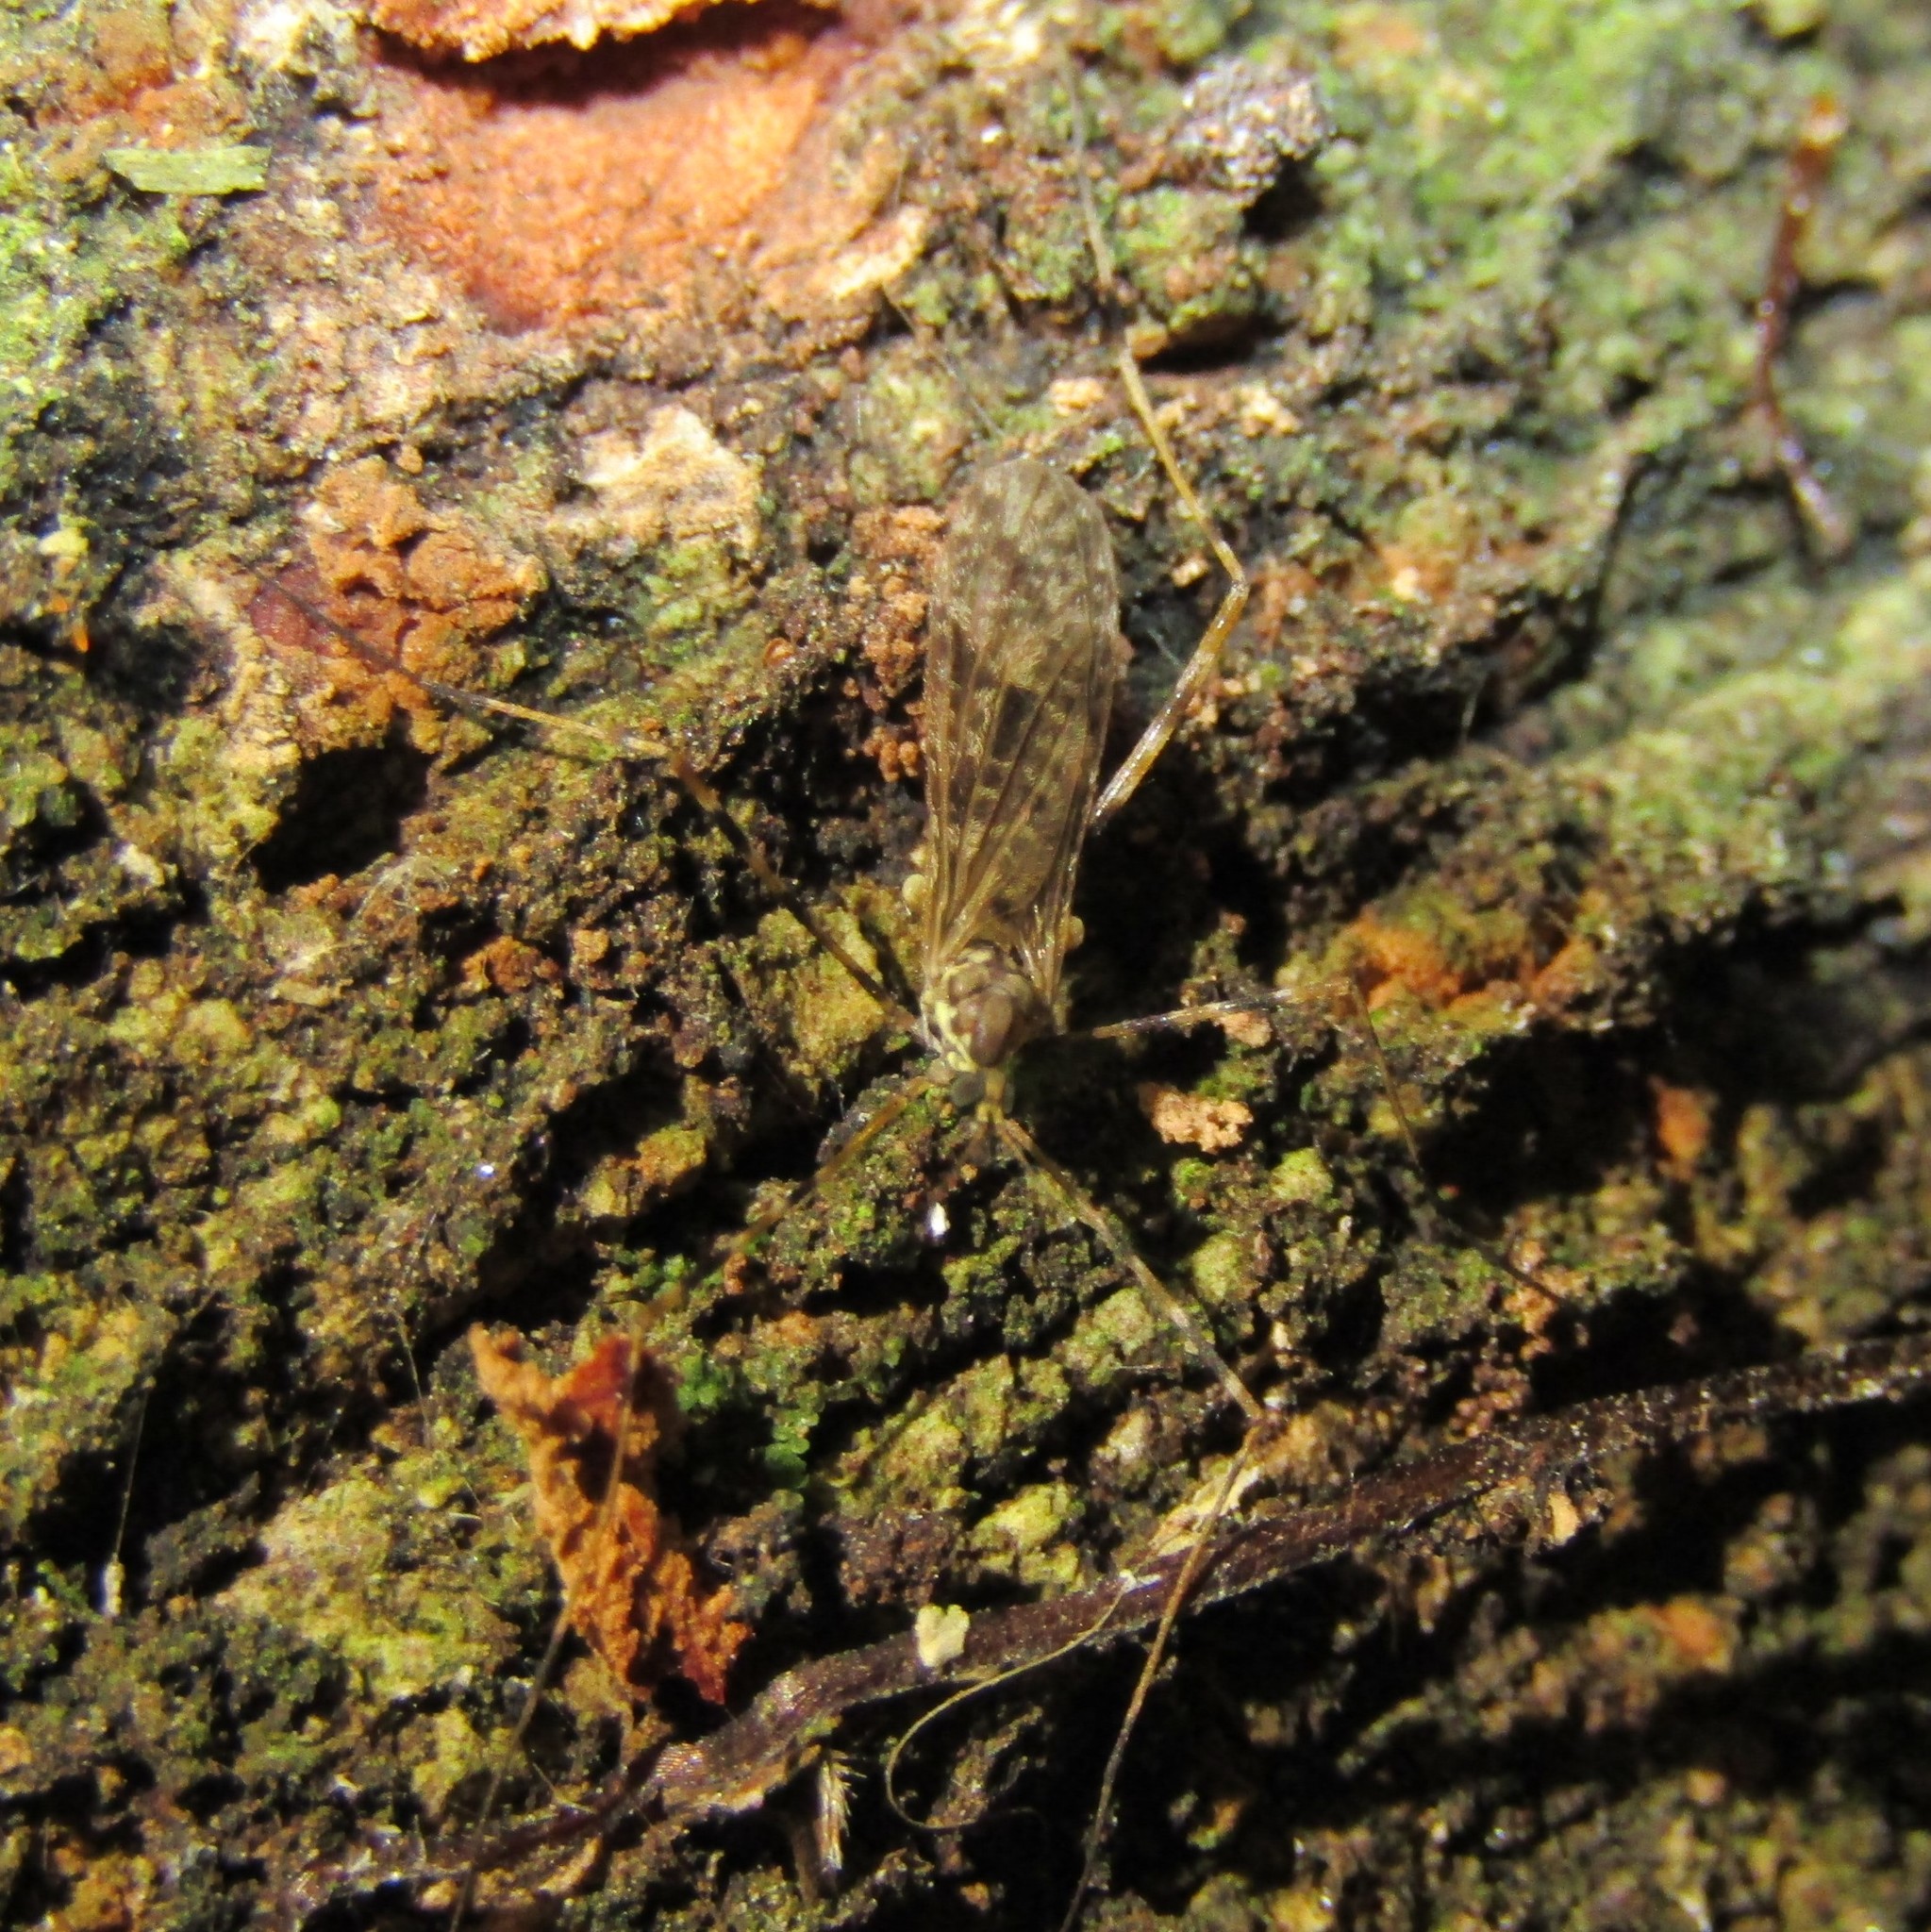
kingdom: Animalia
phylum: Arthropoda
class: Insecta
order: Diptera
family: Limoniidae
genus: Amphineurus
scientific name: Amphineurus hudsoni
